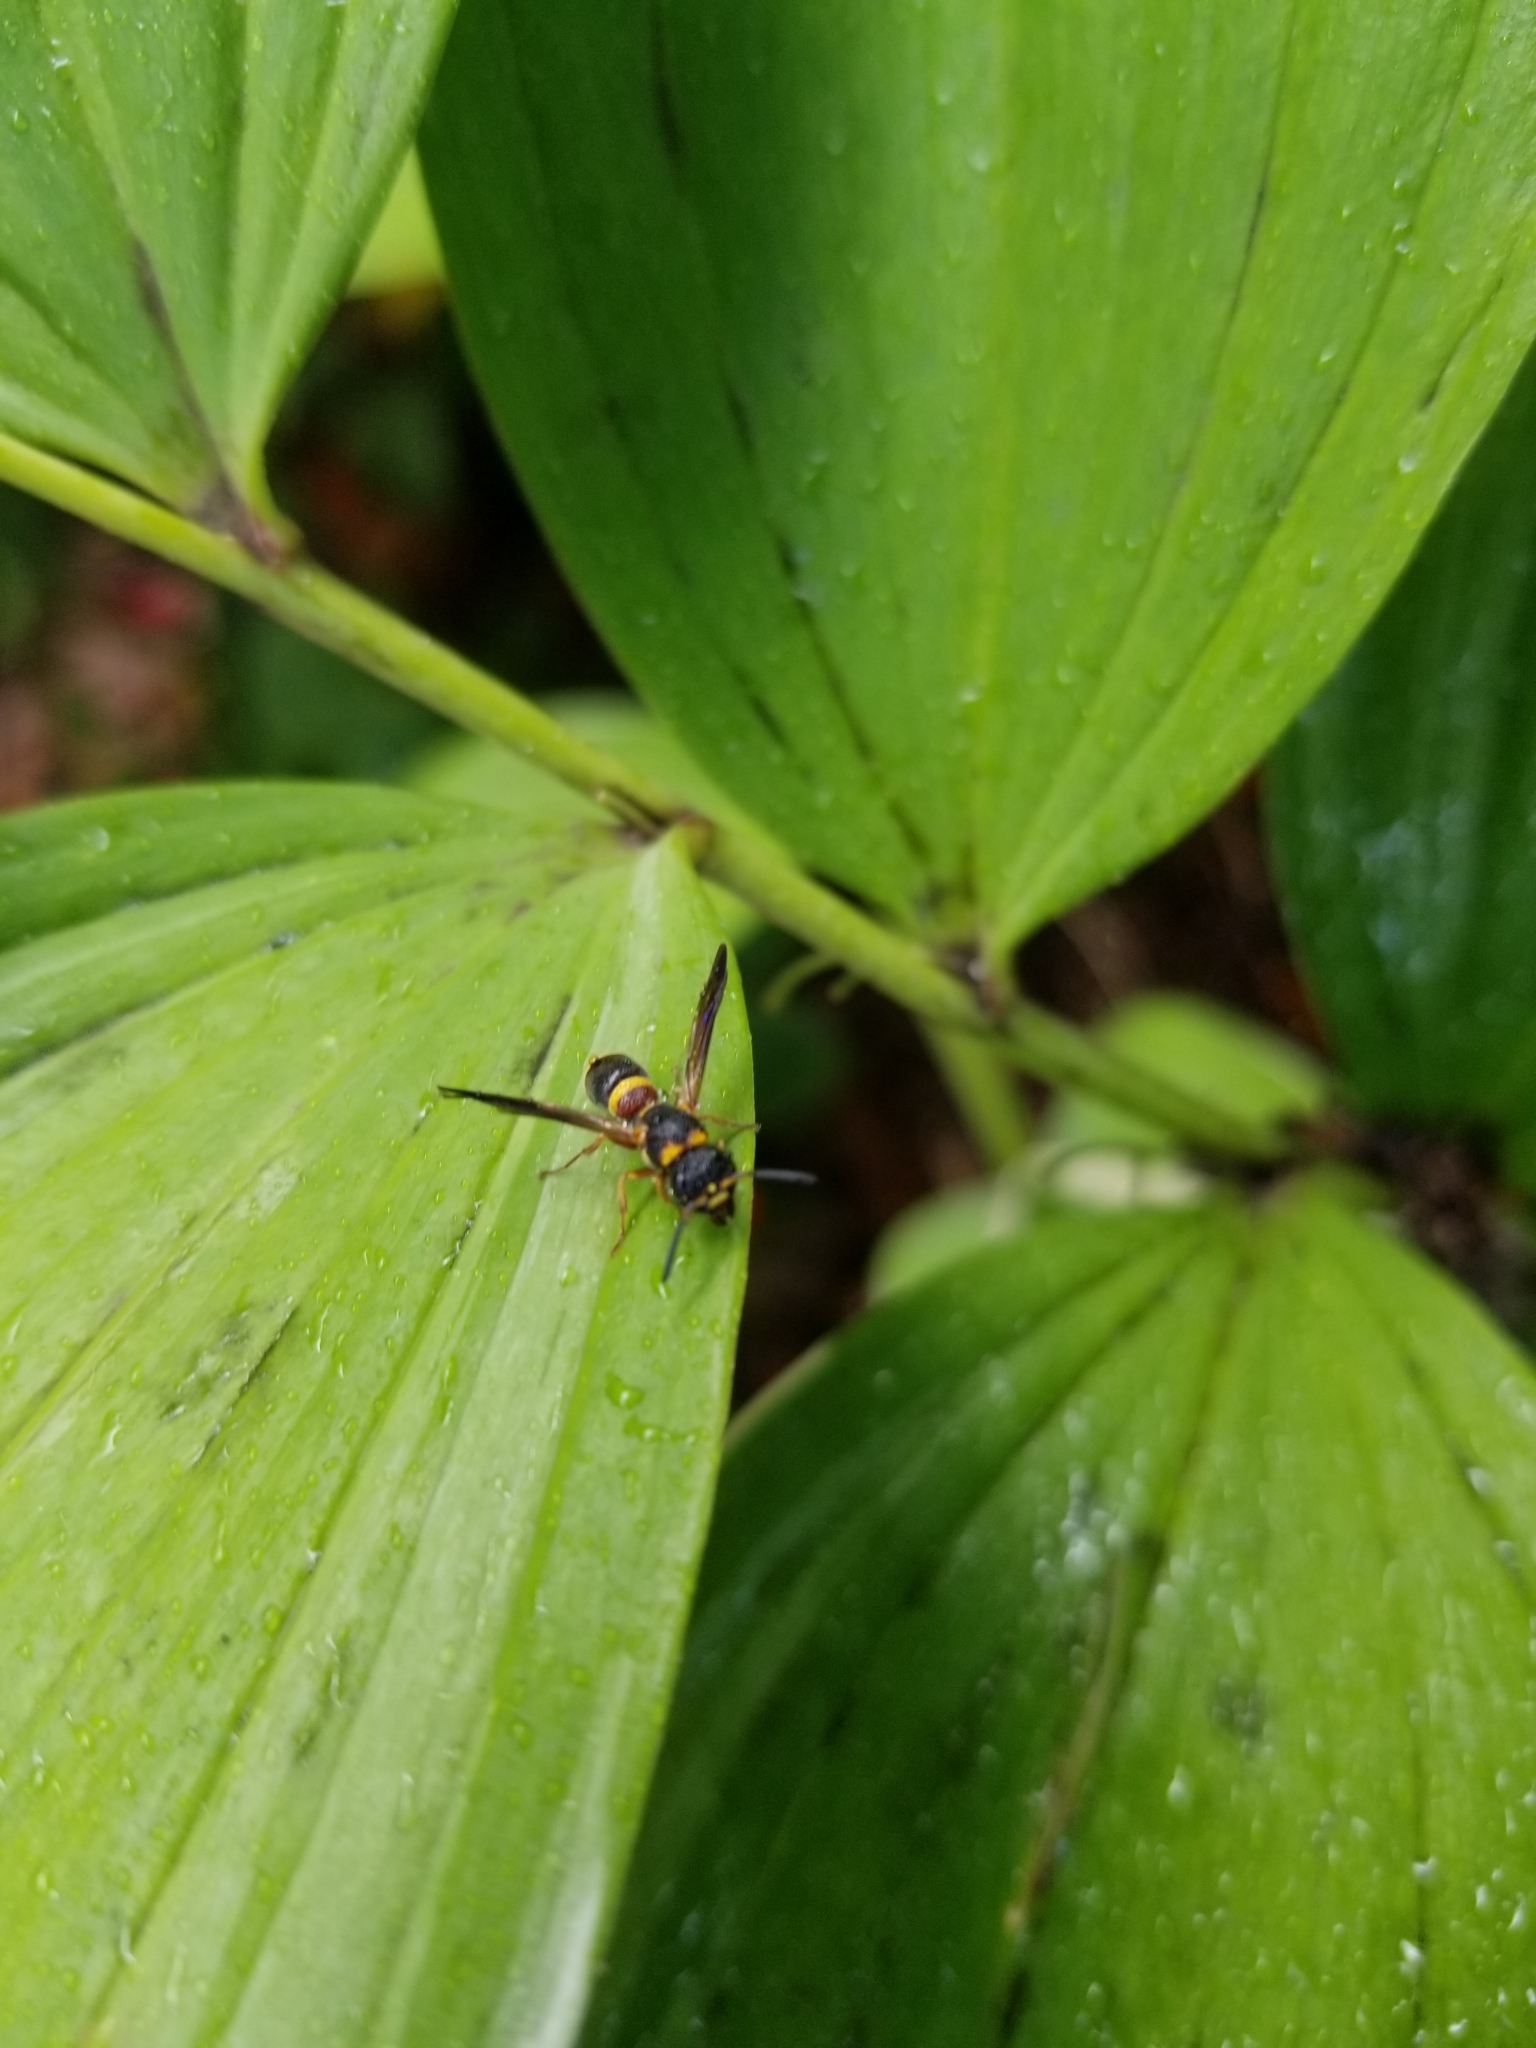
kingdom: Animalia
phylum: Arthropoda
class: Insecta
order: Hymenoptera
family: Eumenidae
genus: Parancistrocerus
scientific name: Parancistrocerus perennis
